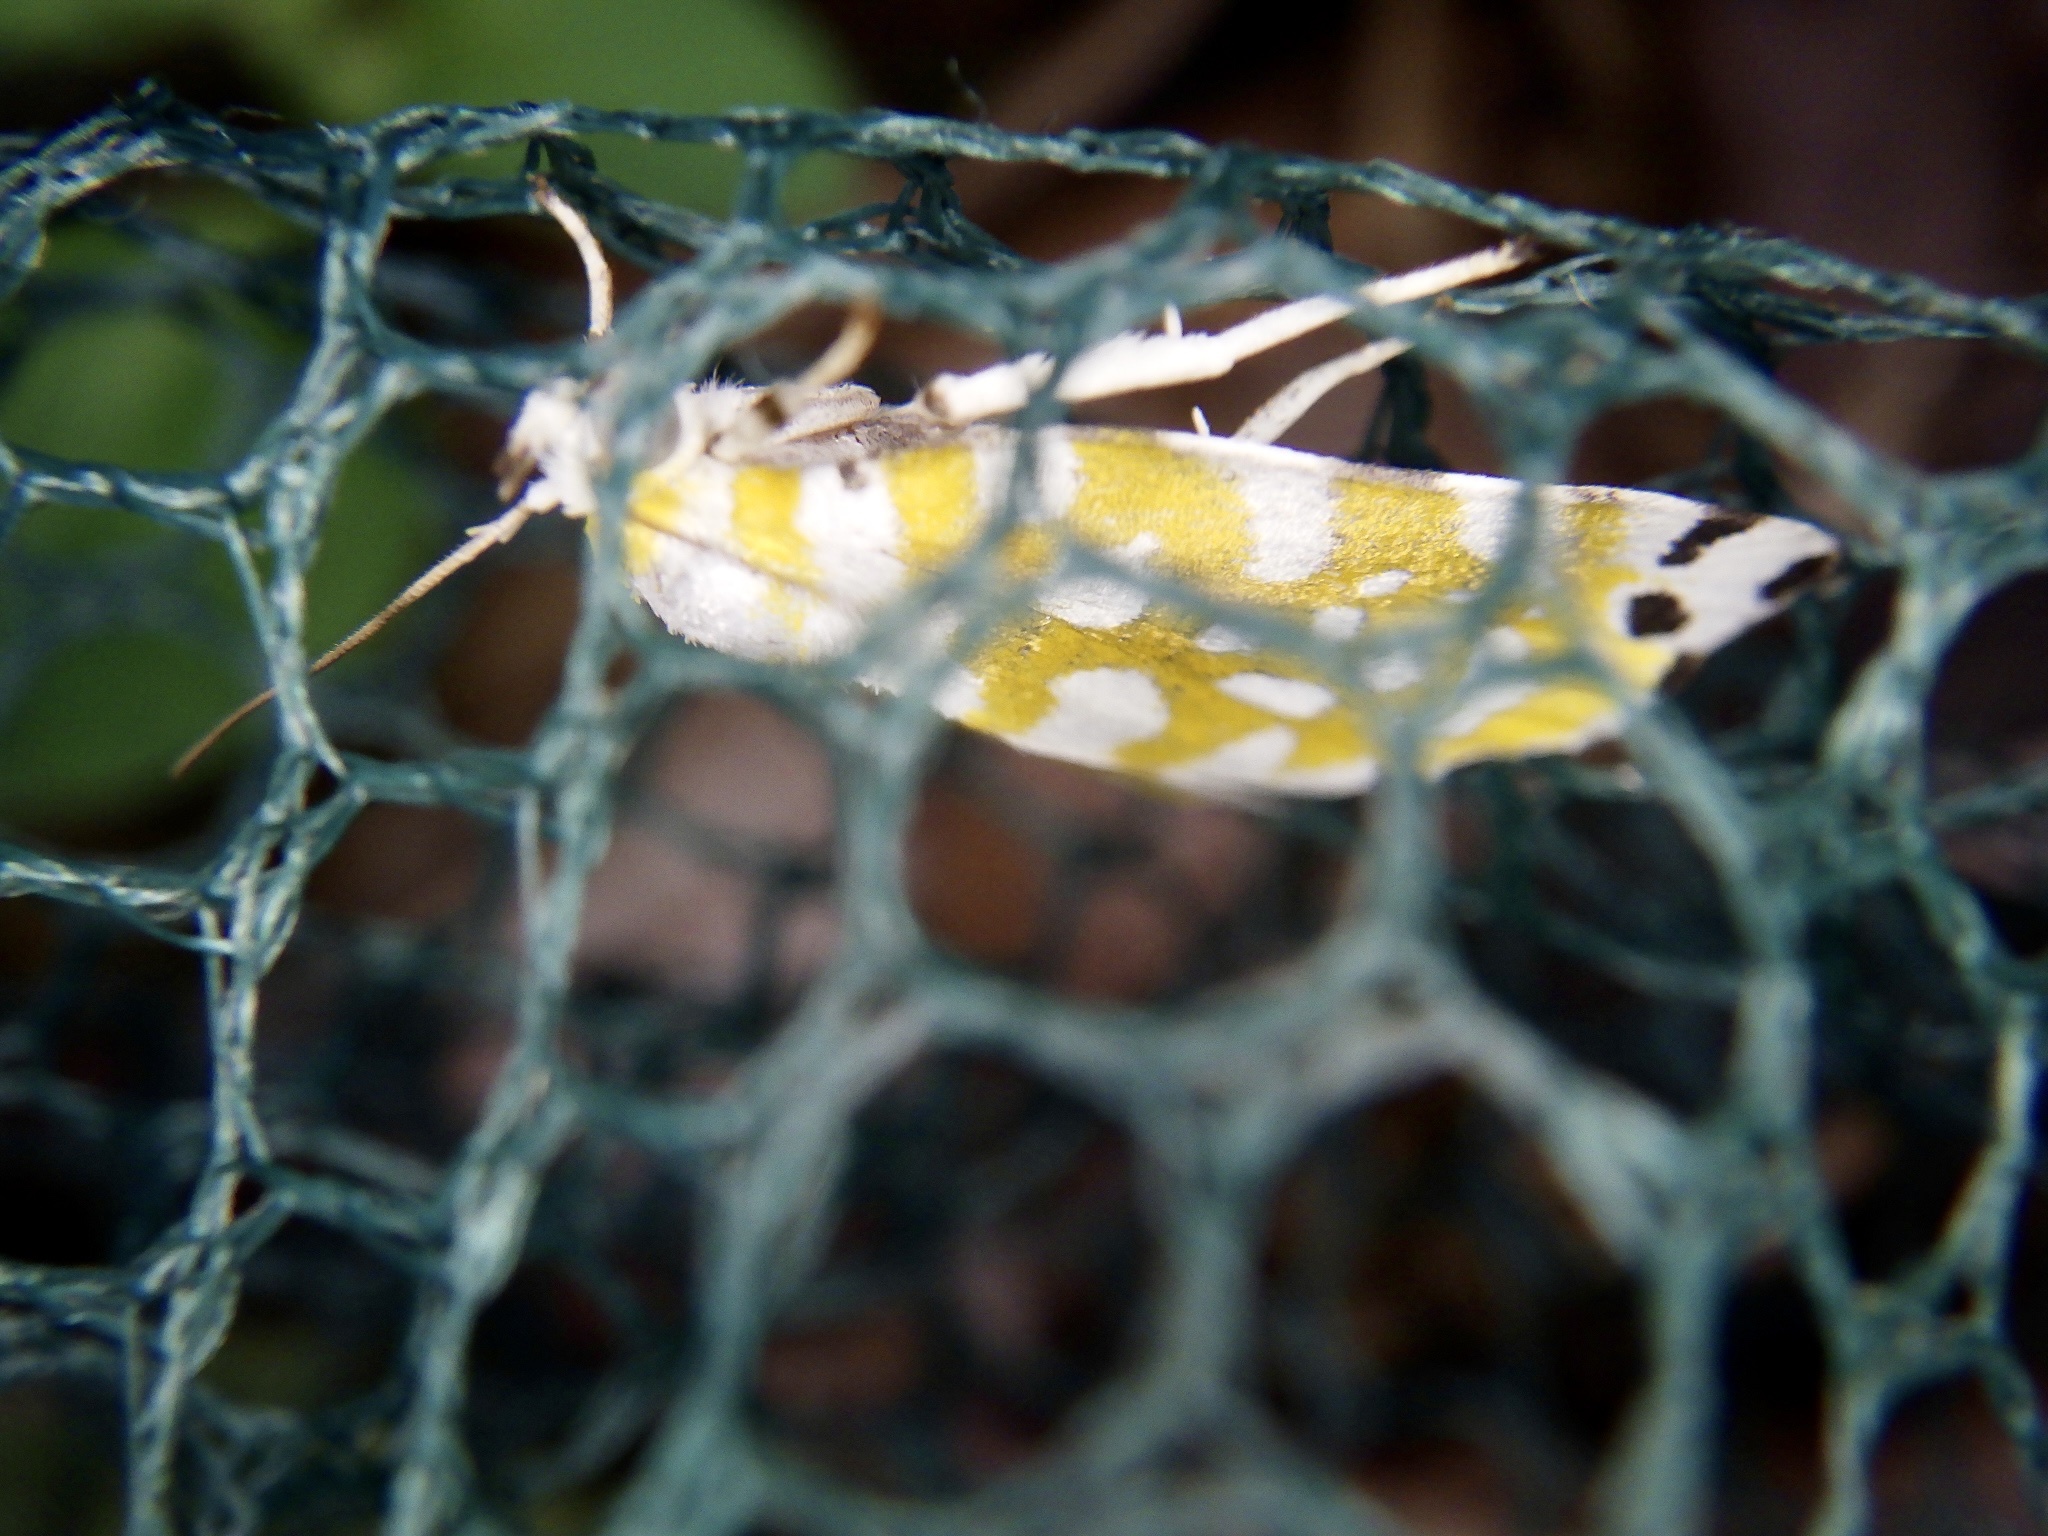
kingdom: Animalia
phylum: Arthropoda
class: Insecta
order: Lepidoptera
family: Nolidae
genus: Sinna
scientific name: Sinna extrema
